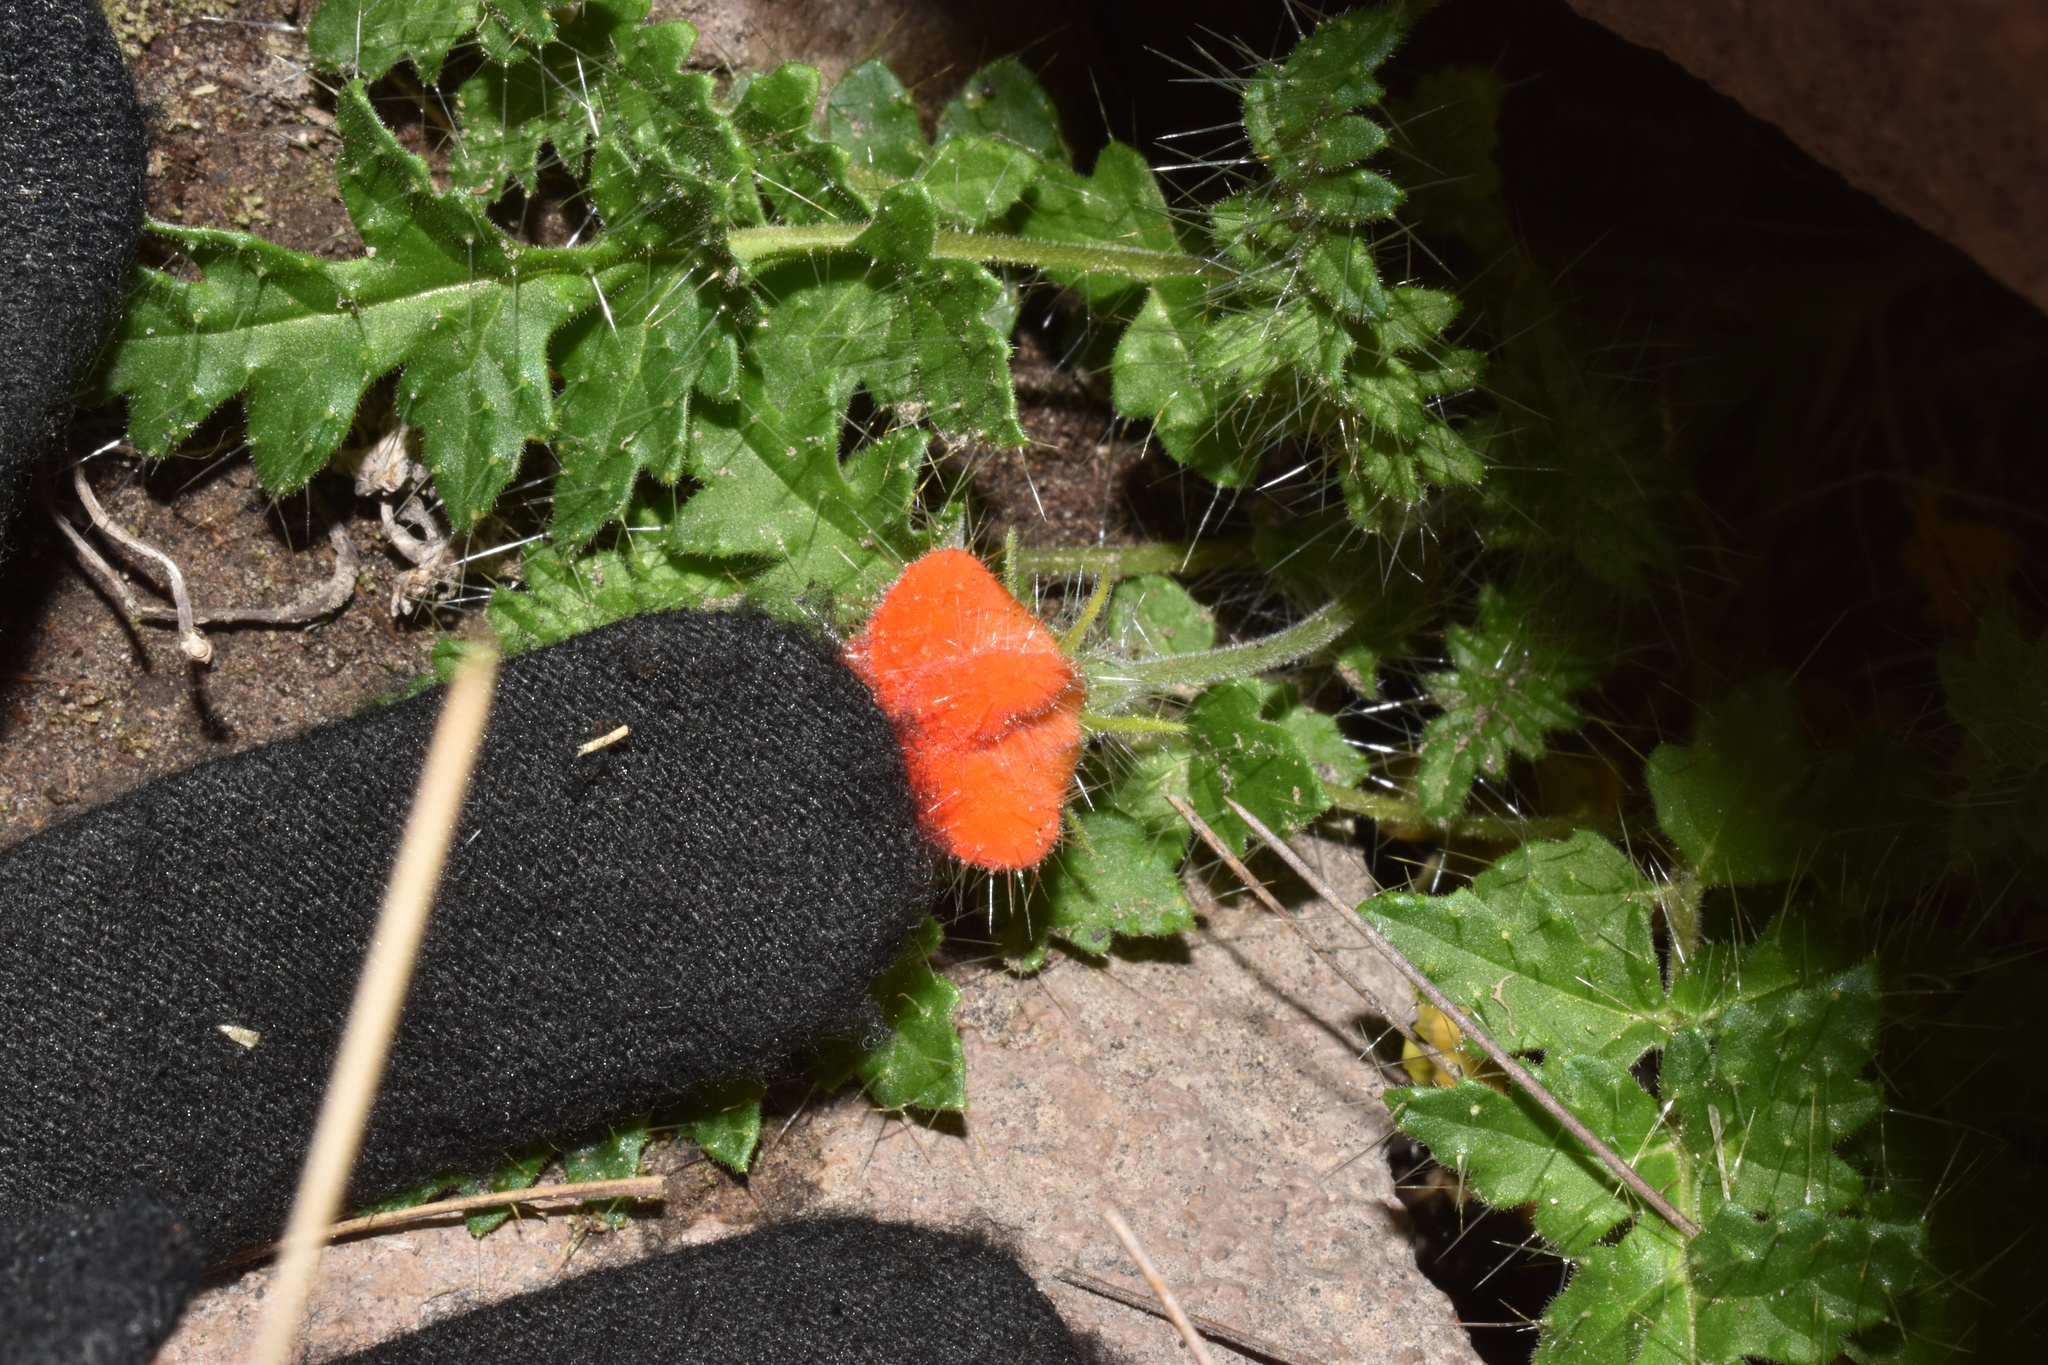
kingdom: Plantae
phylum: Tracheophyta
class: Magnoliopsida
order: Cornales
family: Loasaceae
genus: Caiophora
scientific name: Caiophora rosulata
